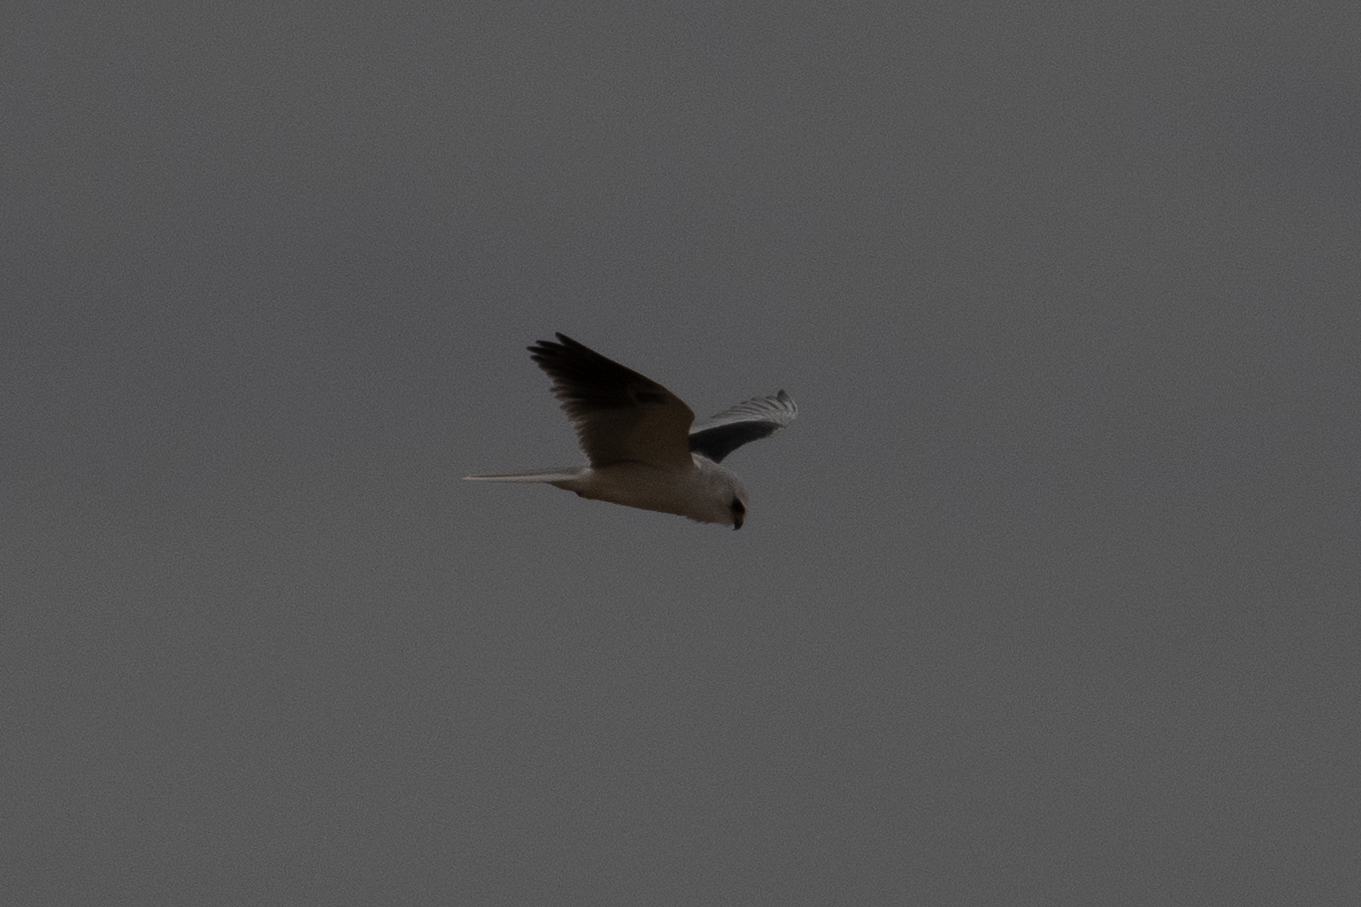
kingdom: Animalia
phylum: Chordata
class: Aves
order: Accipitriformes
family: Accipitridae
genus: Elanus
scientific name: Elanus leucurus
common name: White-tailed kite
